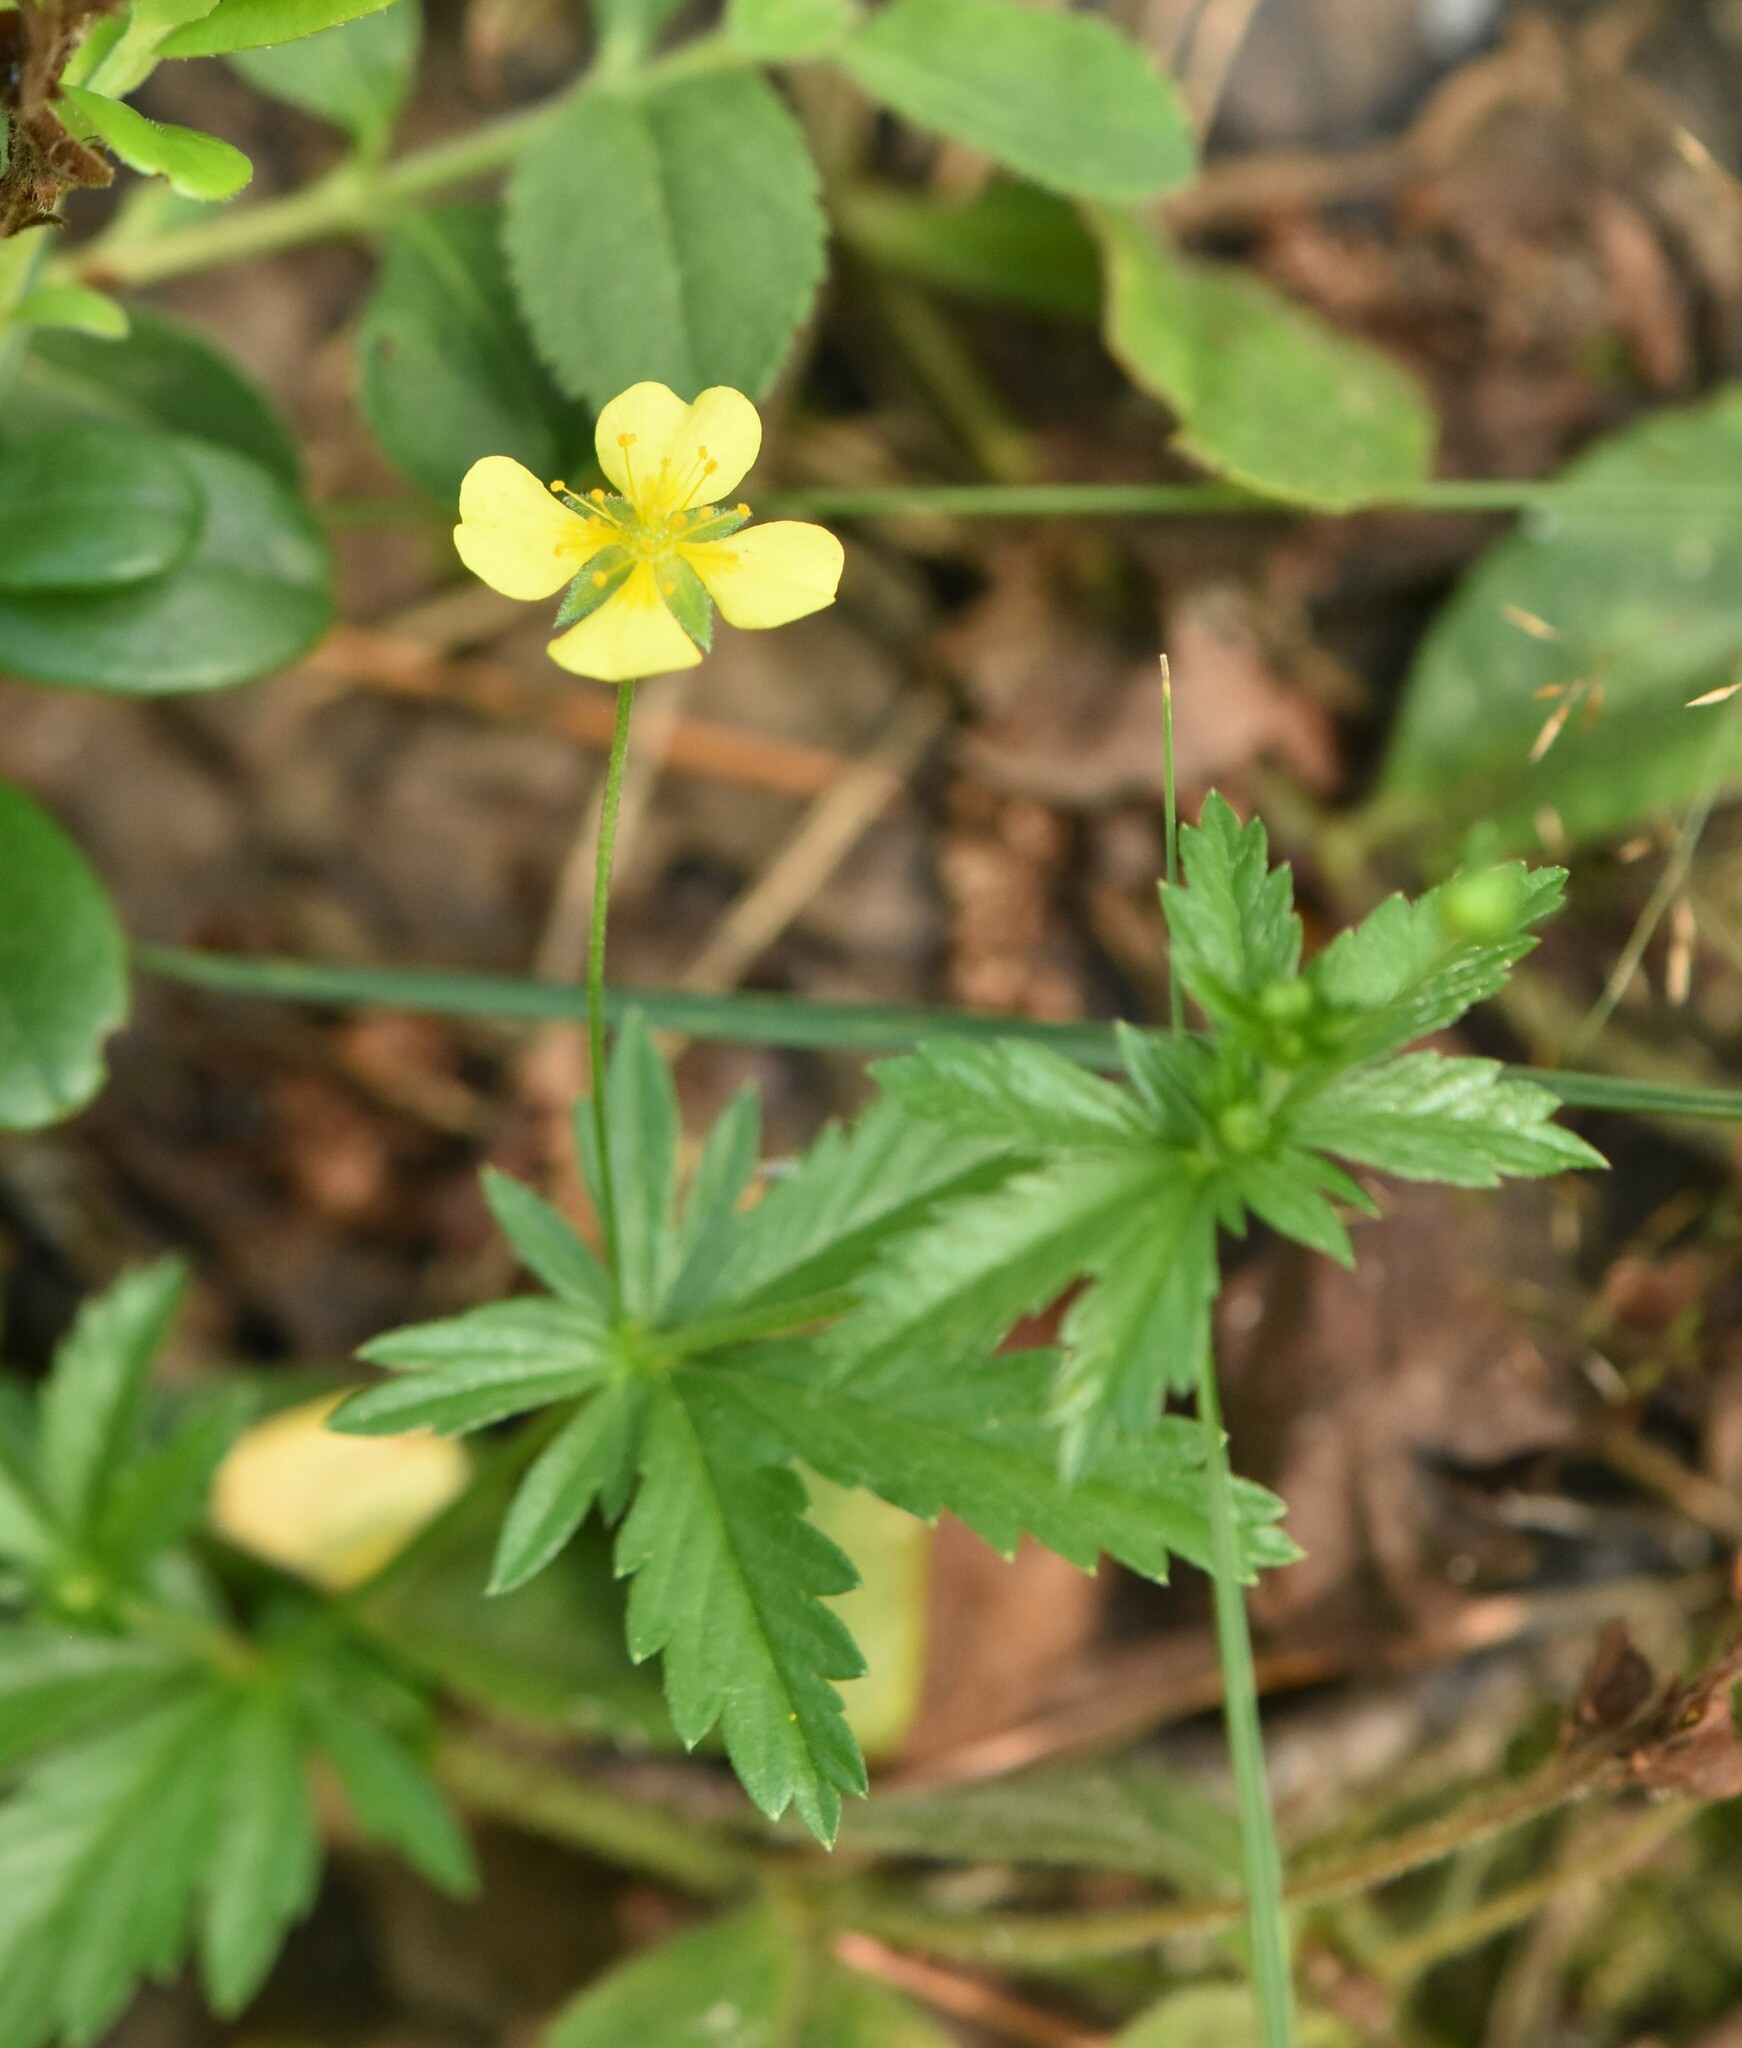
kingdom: Plantae
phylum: Tracheophyta
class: Magnoliopsida
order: Rosales
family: Rosaceae
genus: Potentilla
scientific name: Potentilla erecta
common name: Tormentil
